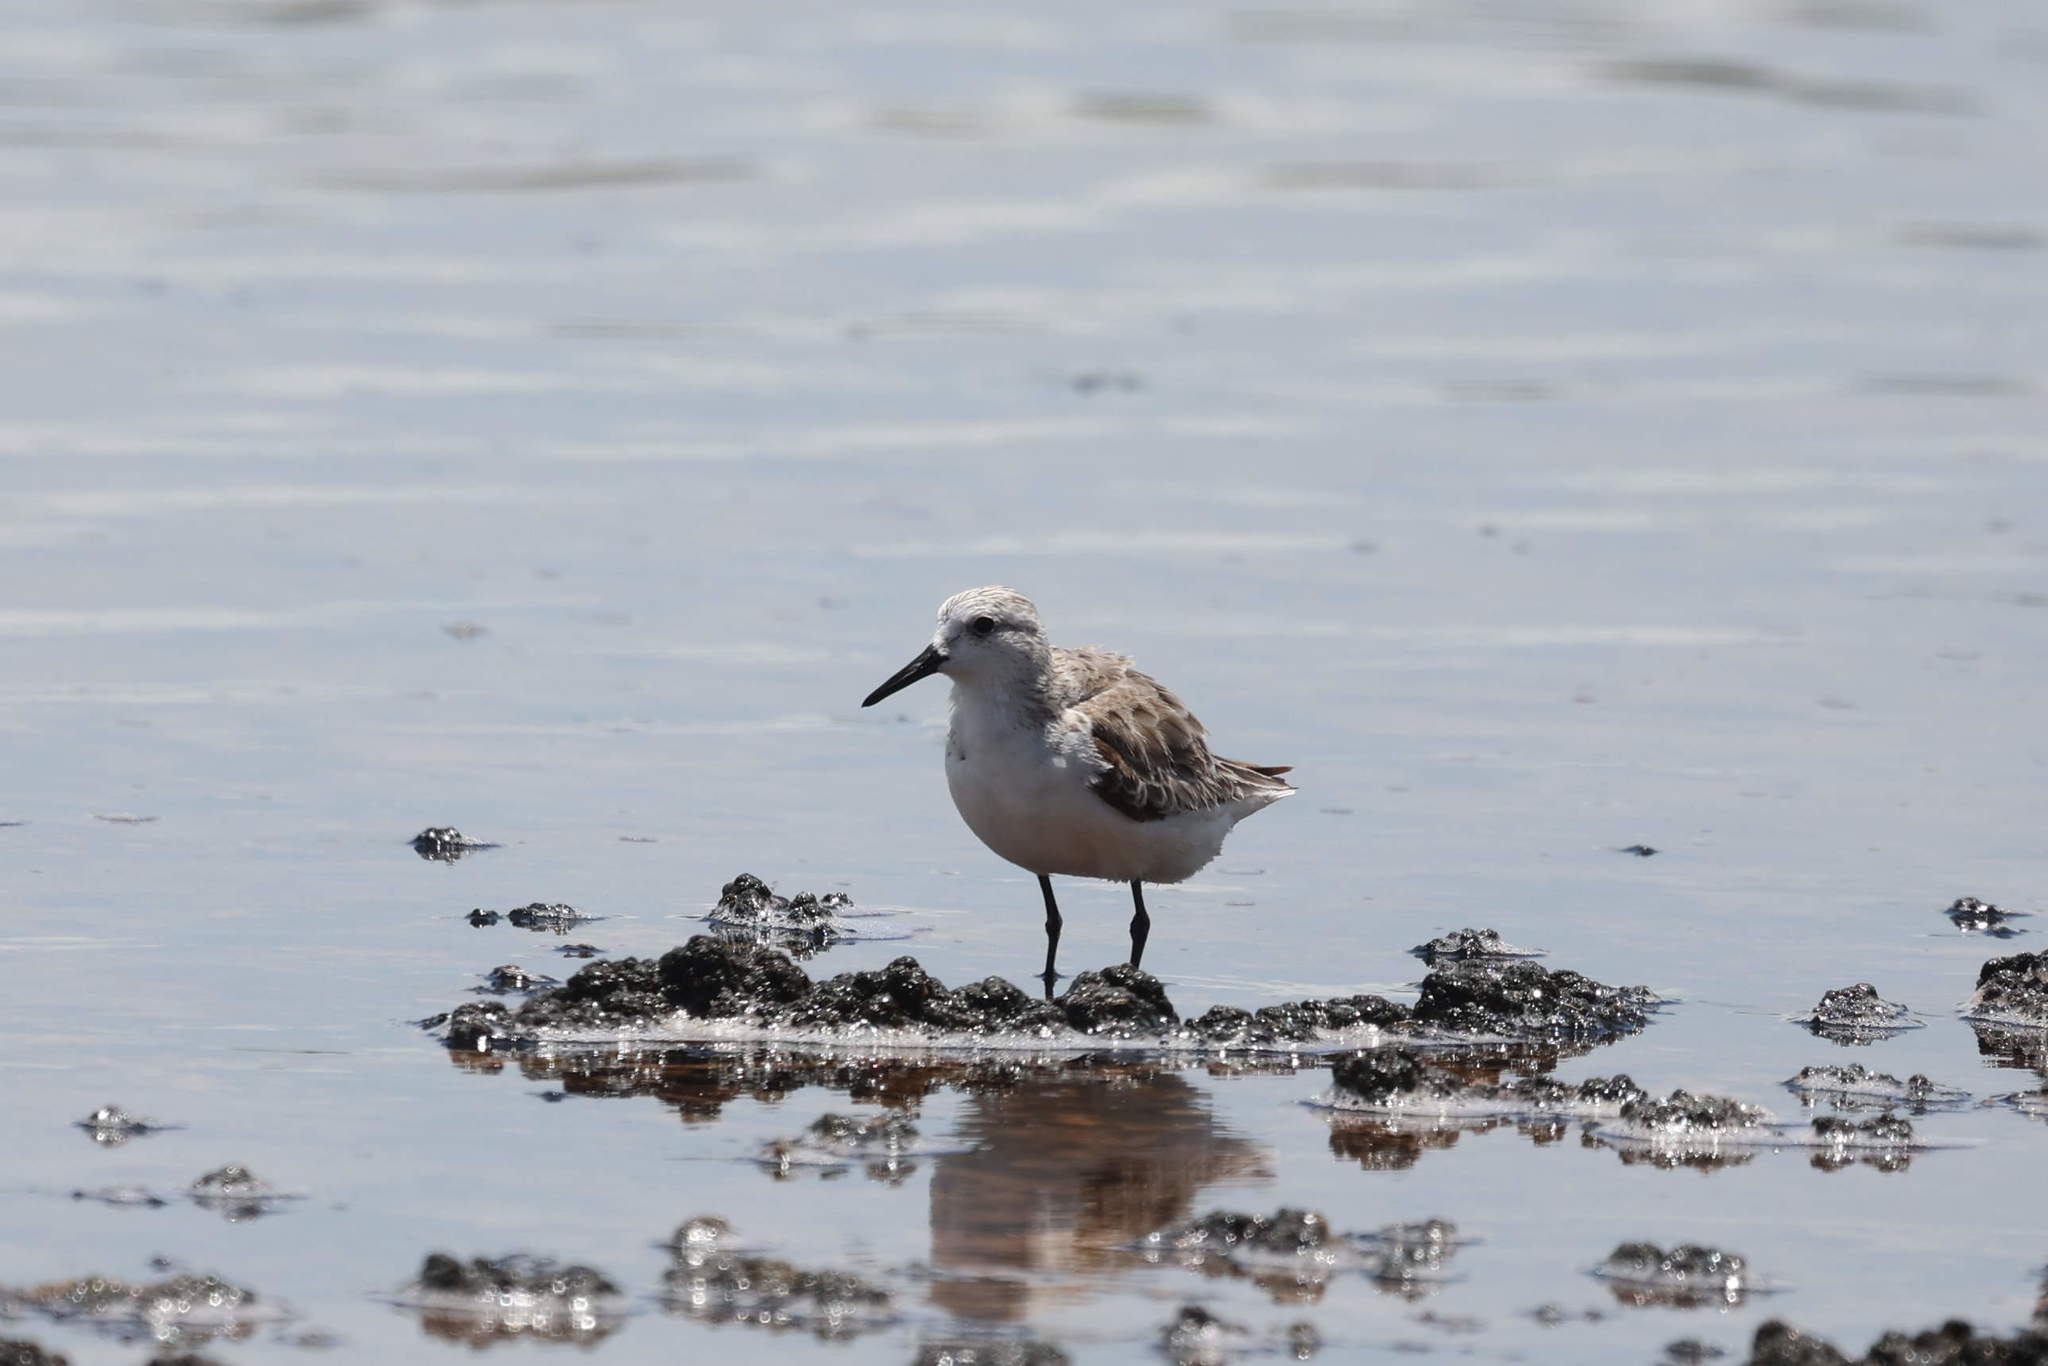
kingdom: Animalia
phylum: Chordata
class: Aves
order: Charadriiformes
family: Scolopacidae
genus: Calidris
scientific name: Calidris alba
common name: Sanderling
